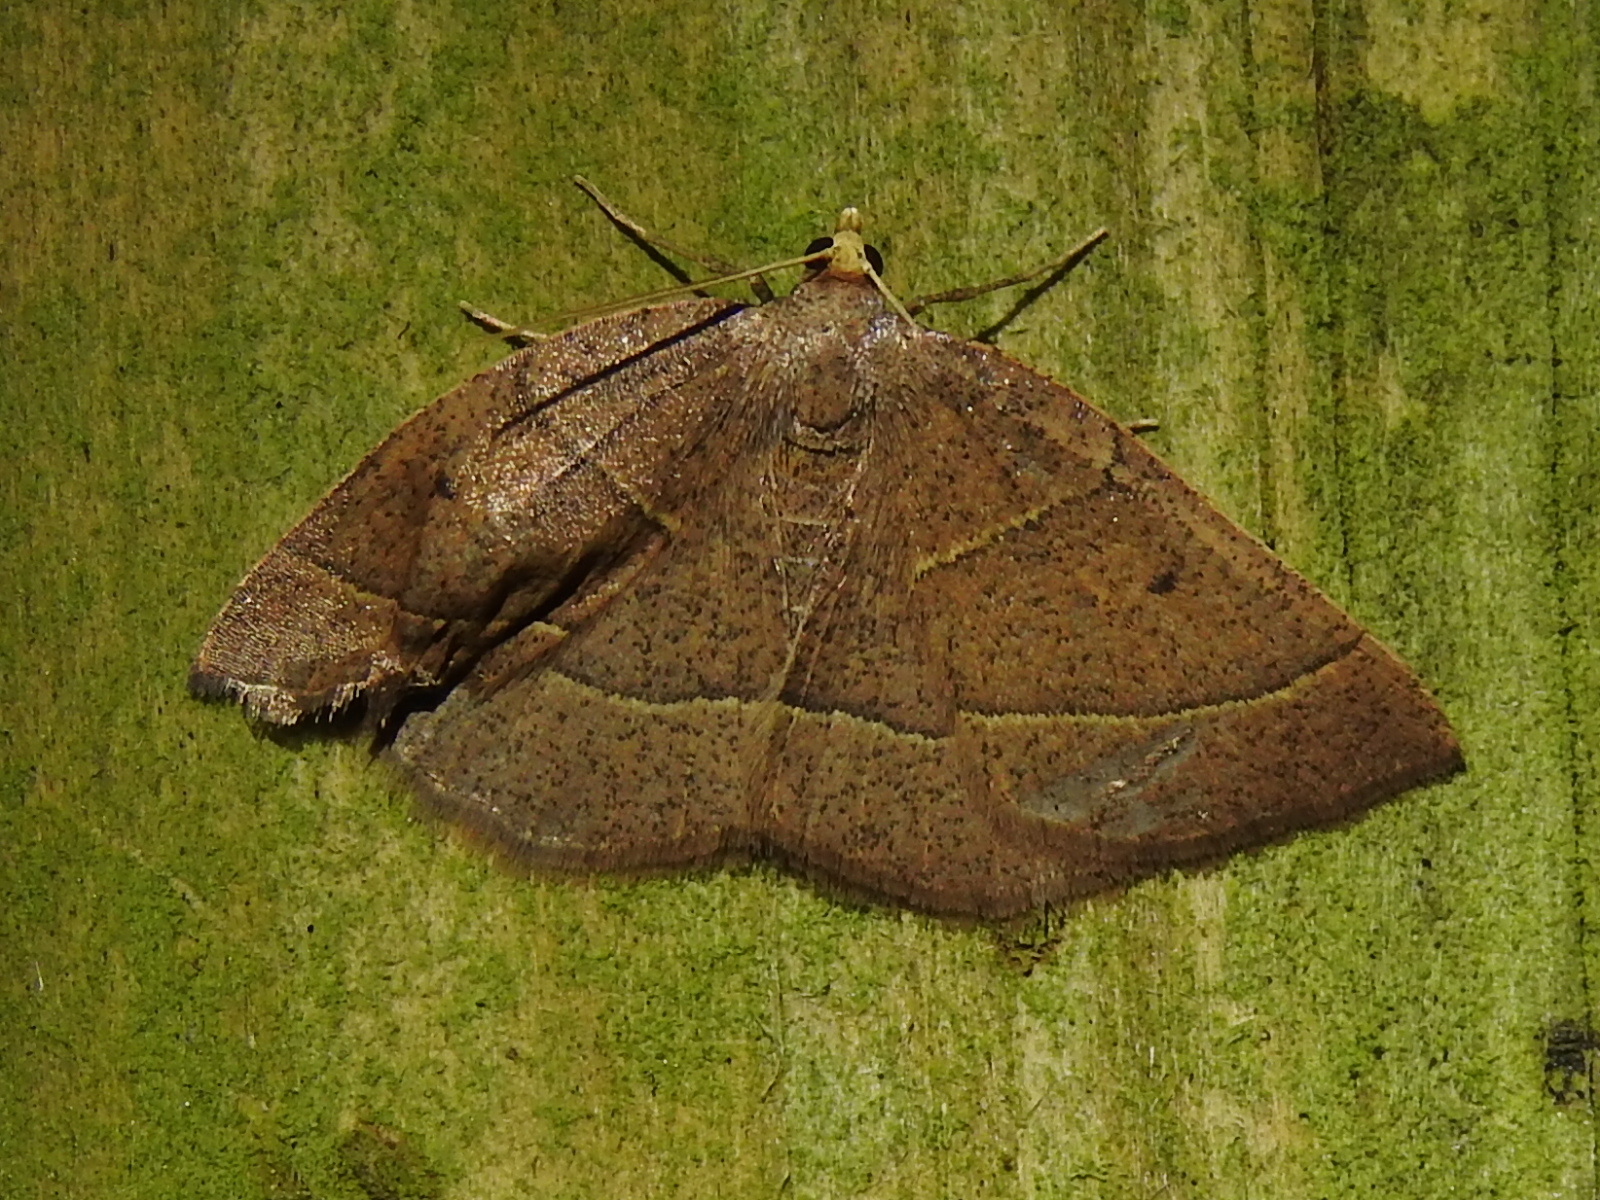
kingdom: Animalia
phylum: Arthropoda
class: Insecta
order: Lepidoptera
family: Geometridae
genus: Episemasia
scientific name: Episemasia cervinaria
